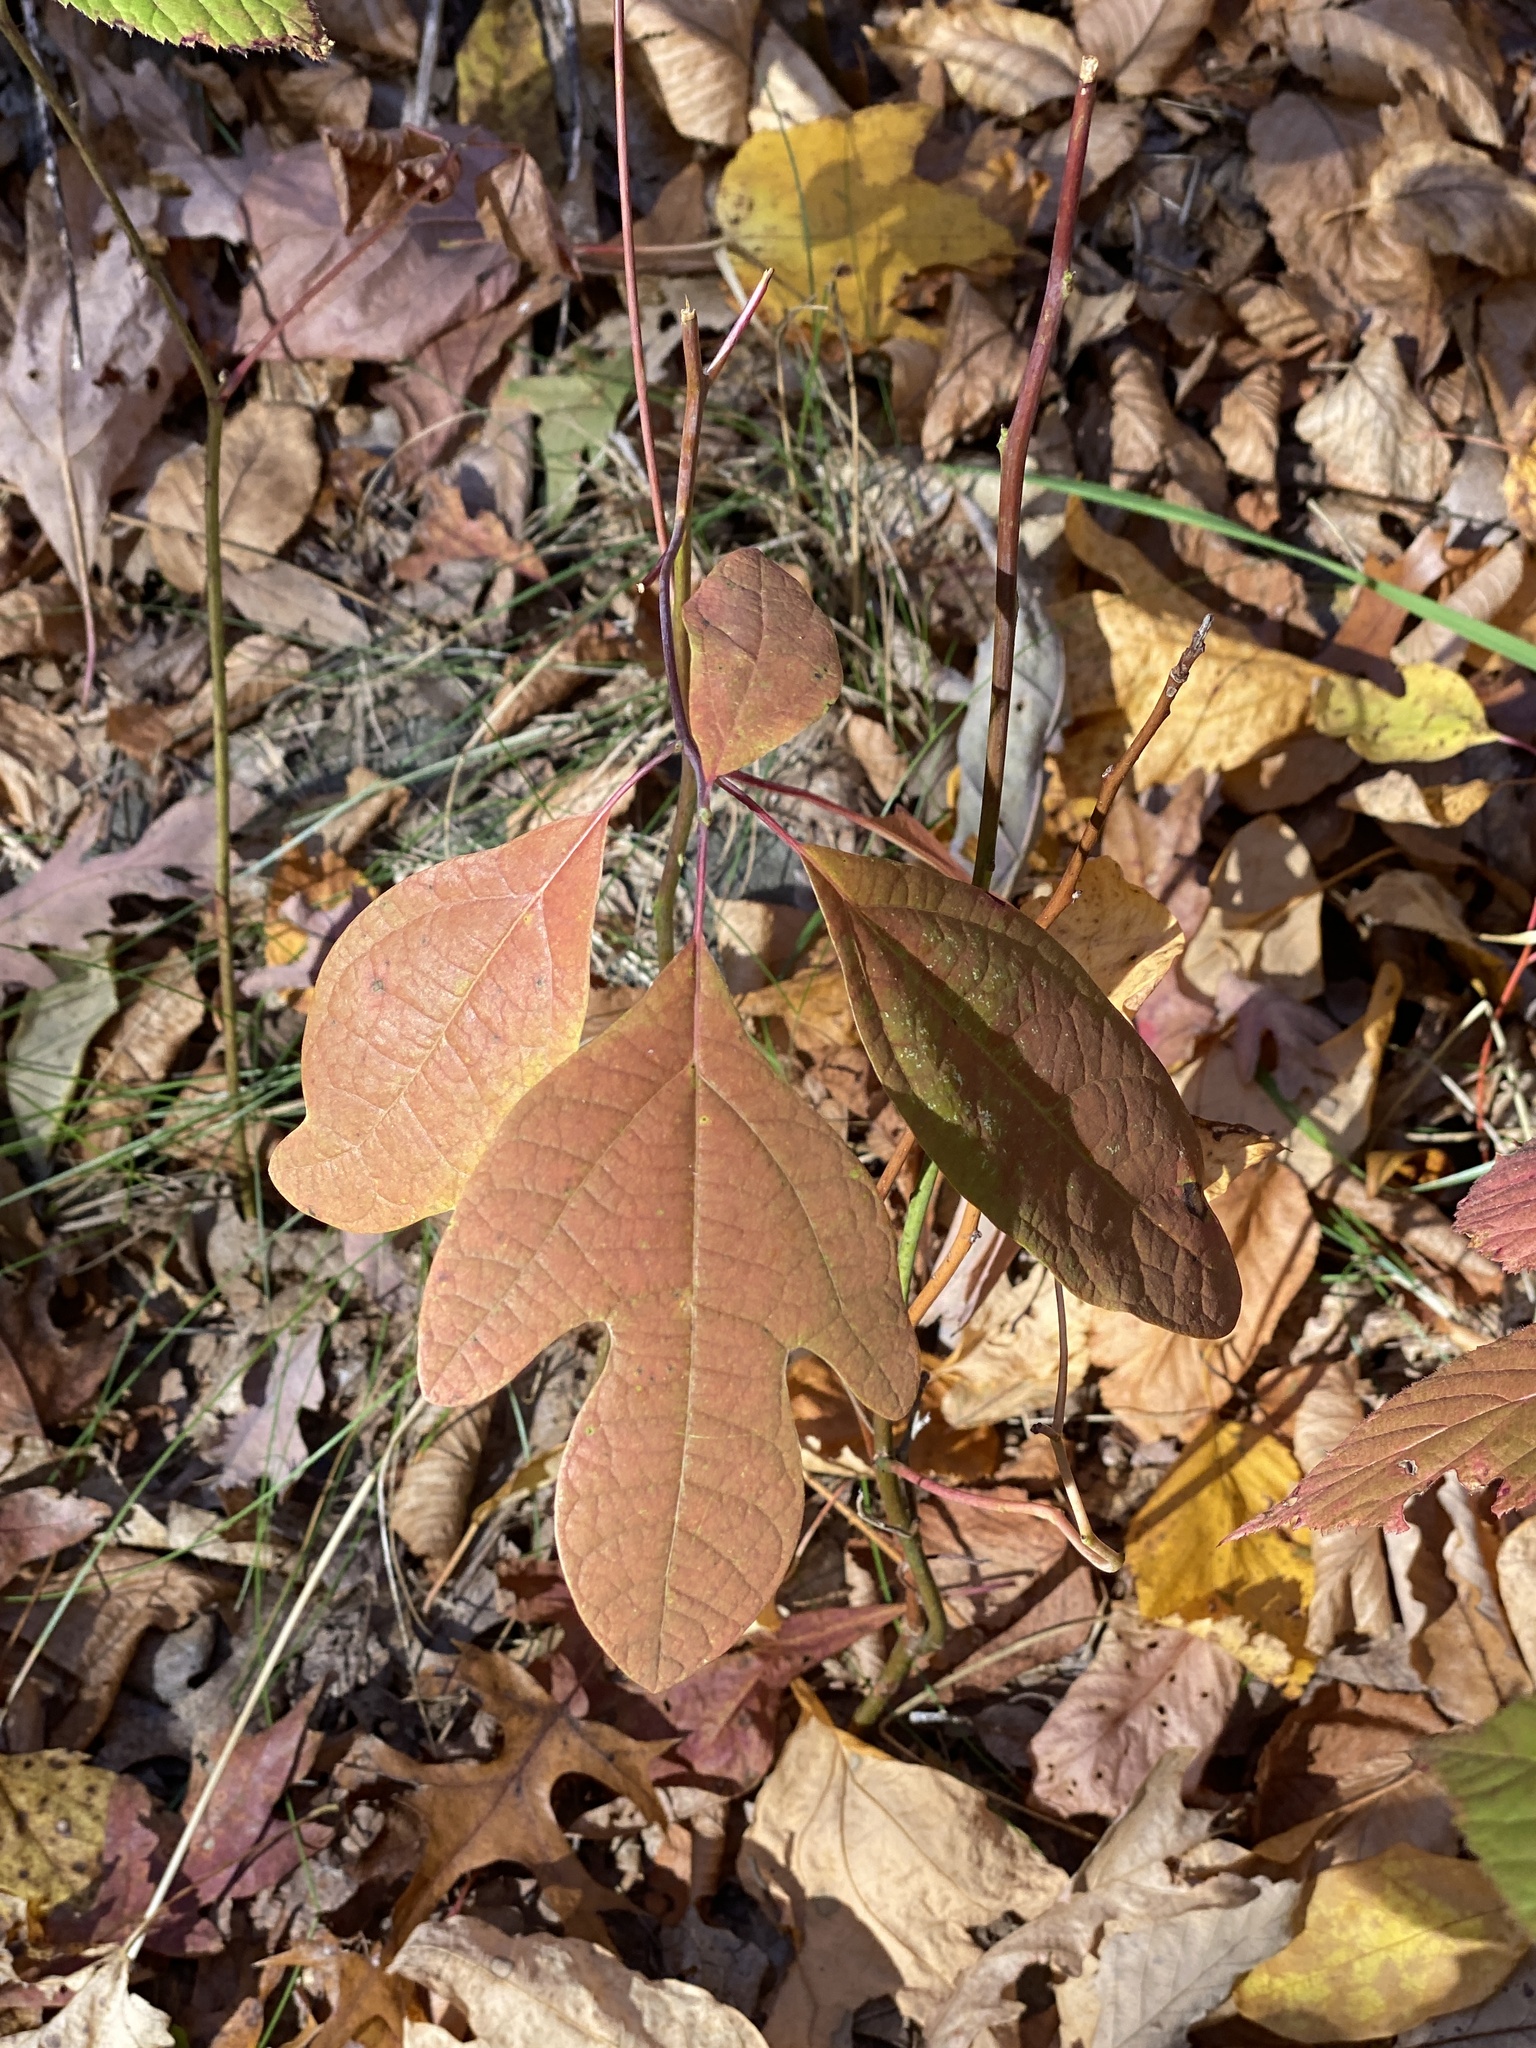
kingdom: Plantae
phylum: Tracheophyta
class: Magnoliopsida
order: Laurales
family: Lauraceae
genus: Sassafras
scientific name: Sassafras albidum
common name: Sassafras
